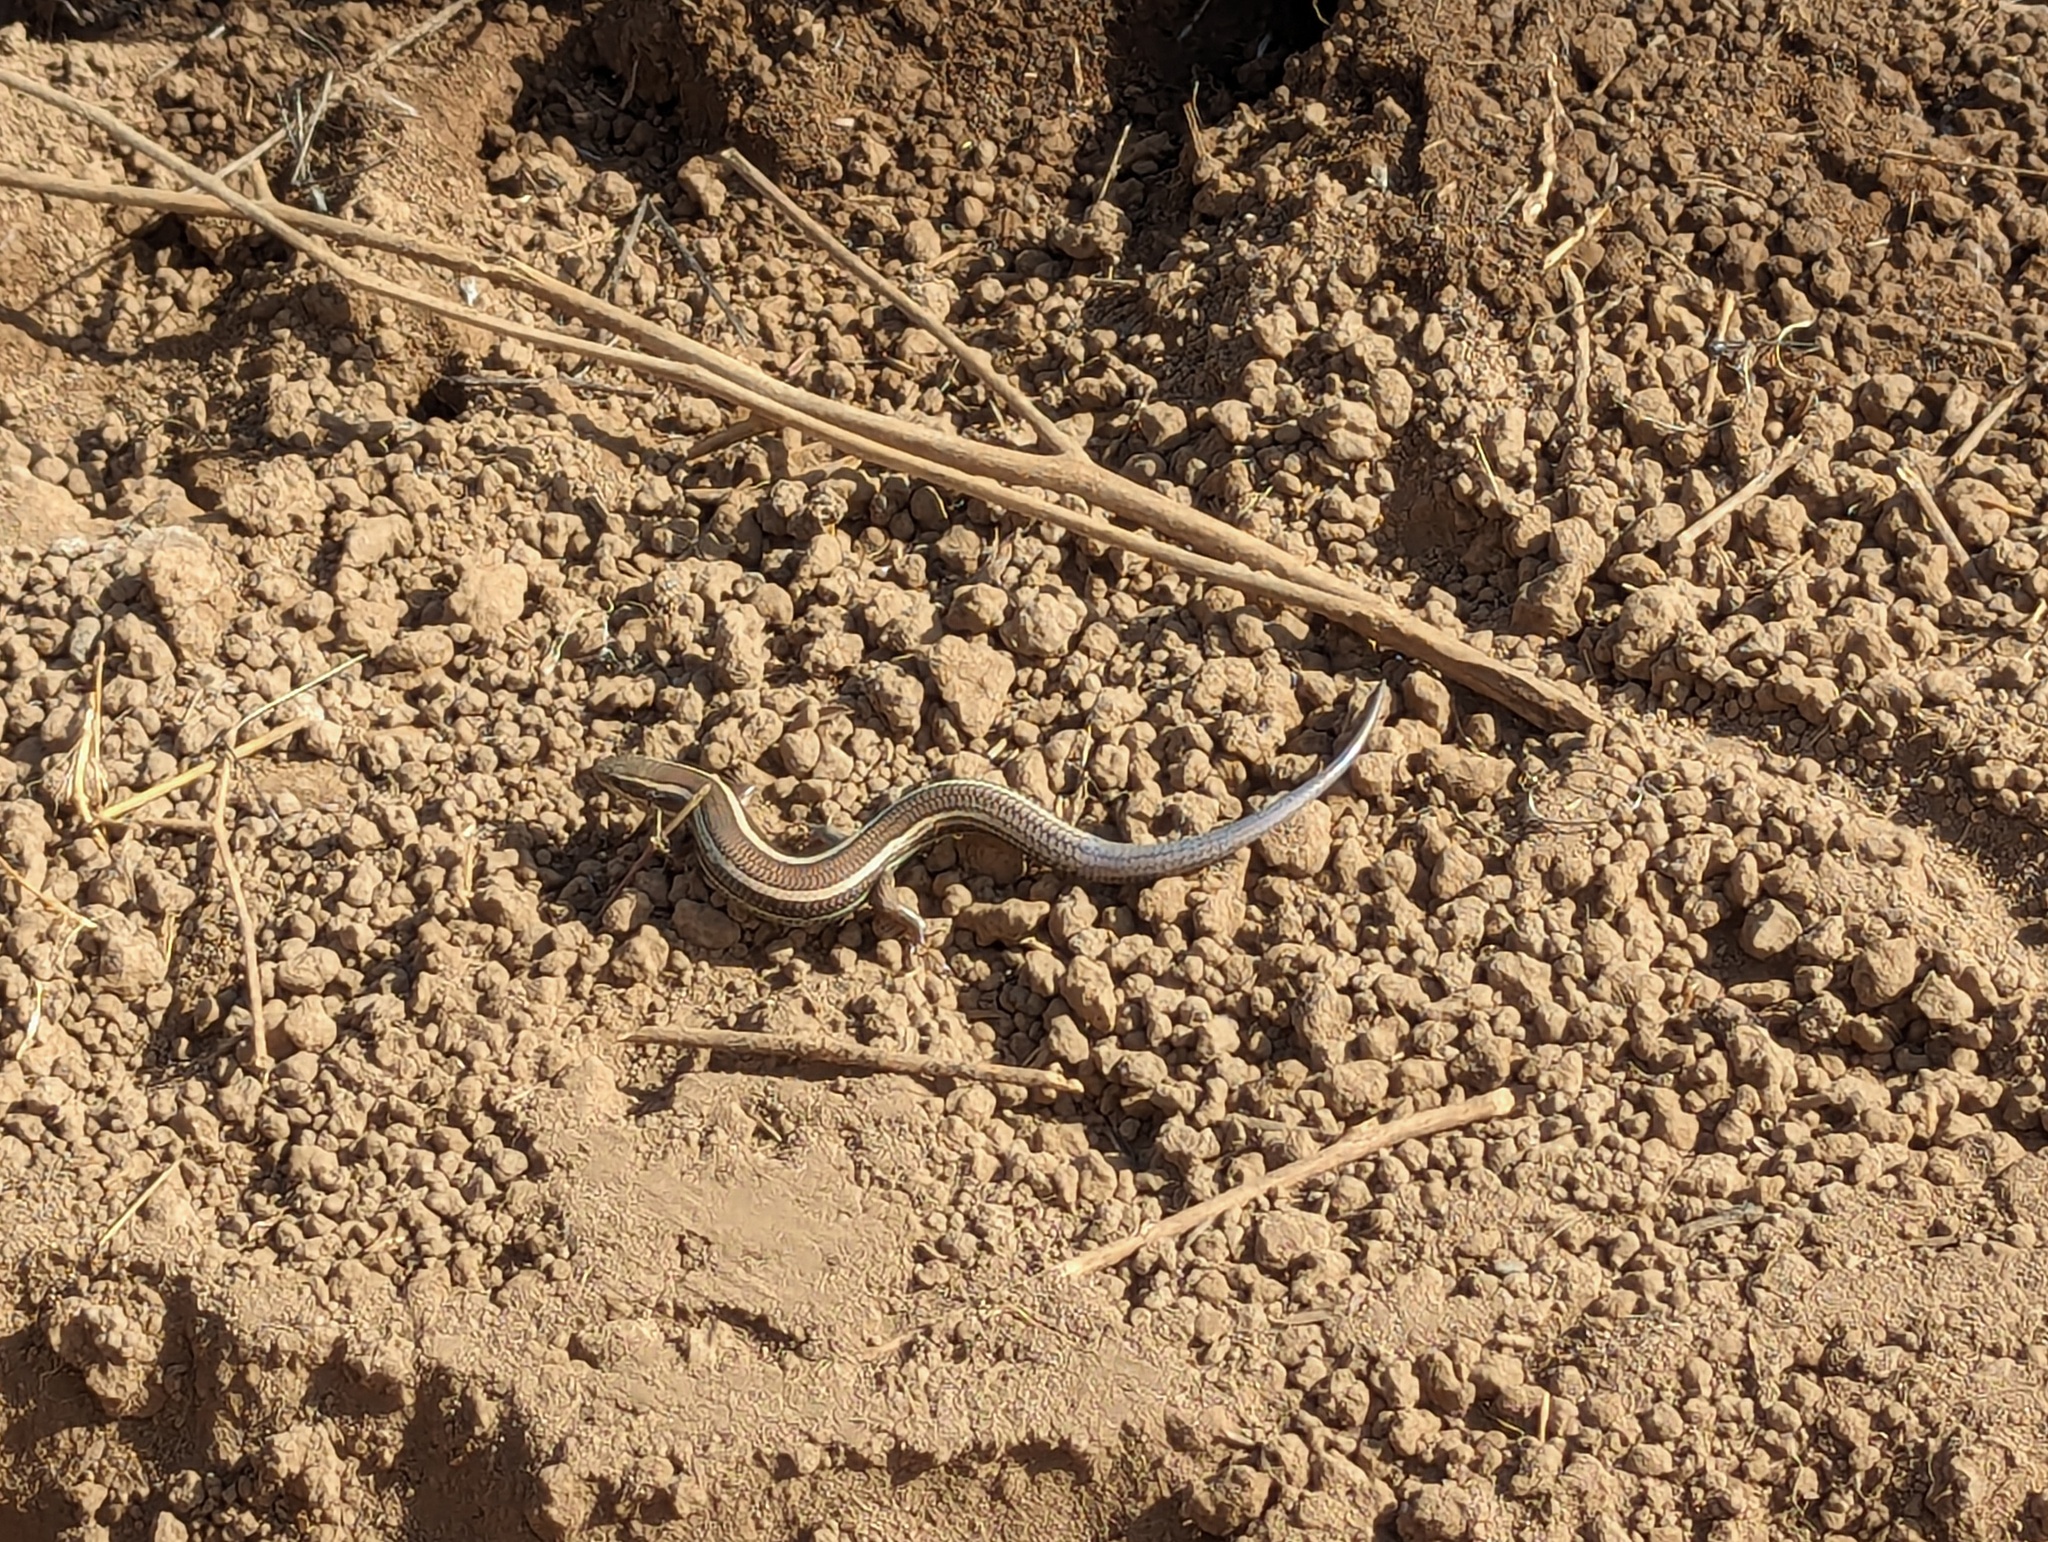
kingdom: Animalia
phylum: Chordata
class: Squamata
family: Scincidae
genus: Plestiodon
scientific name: Plestiodon skiltonianus
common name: Coronado island skink [interparietalis]
